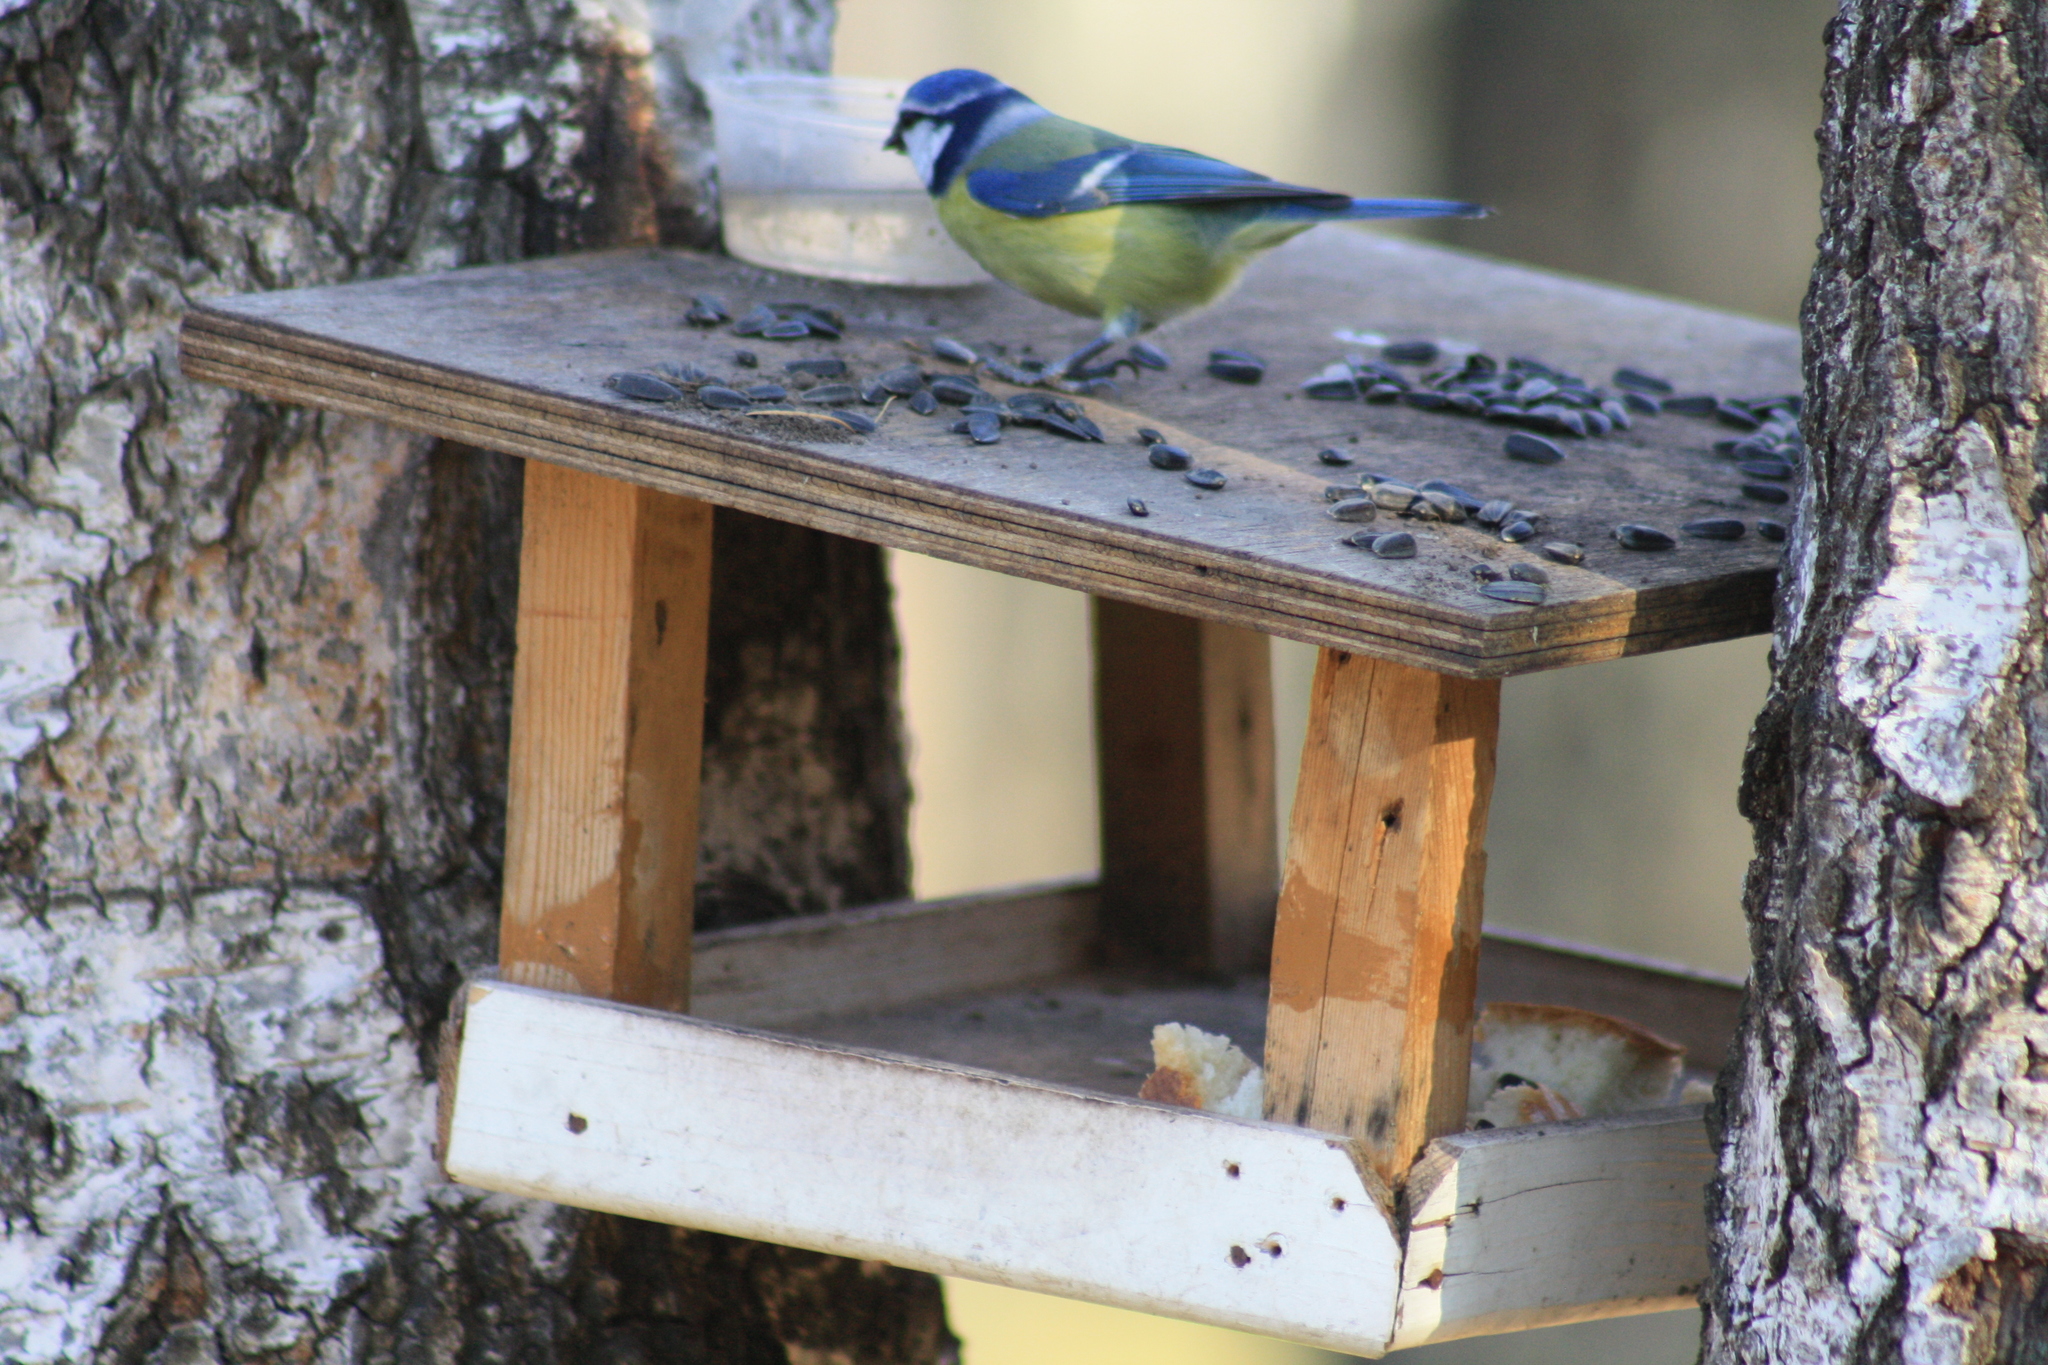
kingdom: Animalia
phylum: Chordata
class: Aves
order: Passeriformes
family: Paridae
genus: Cyanistes
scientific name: Cyanistes caeruleus
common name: Eurasian blue tit
